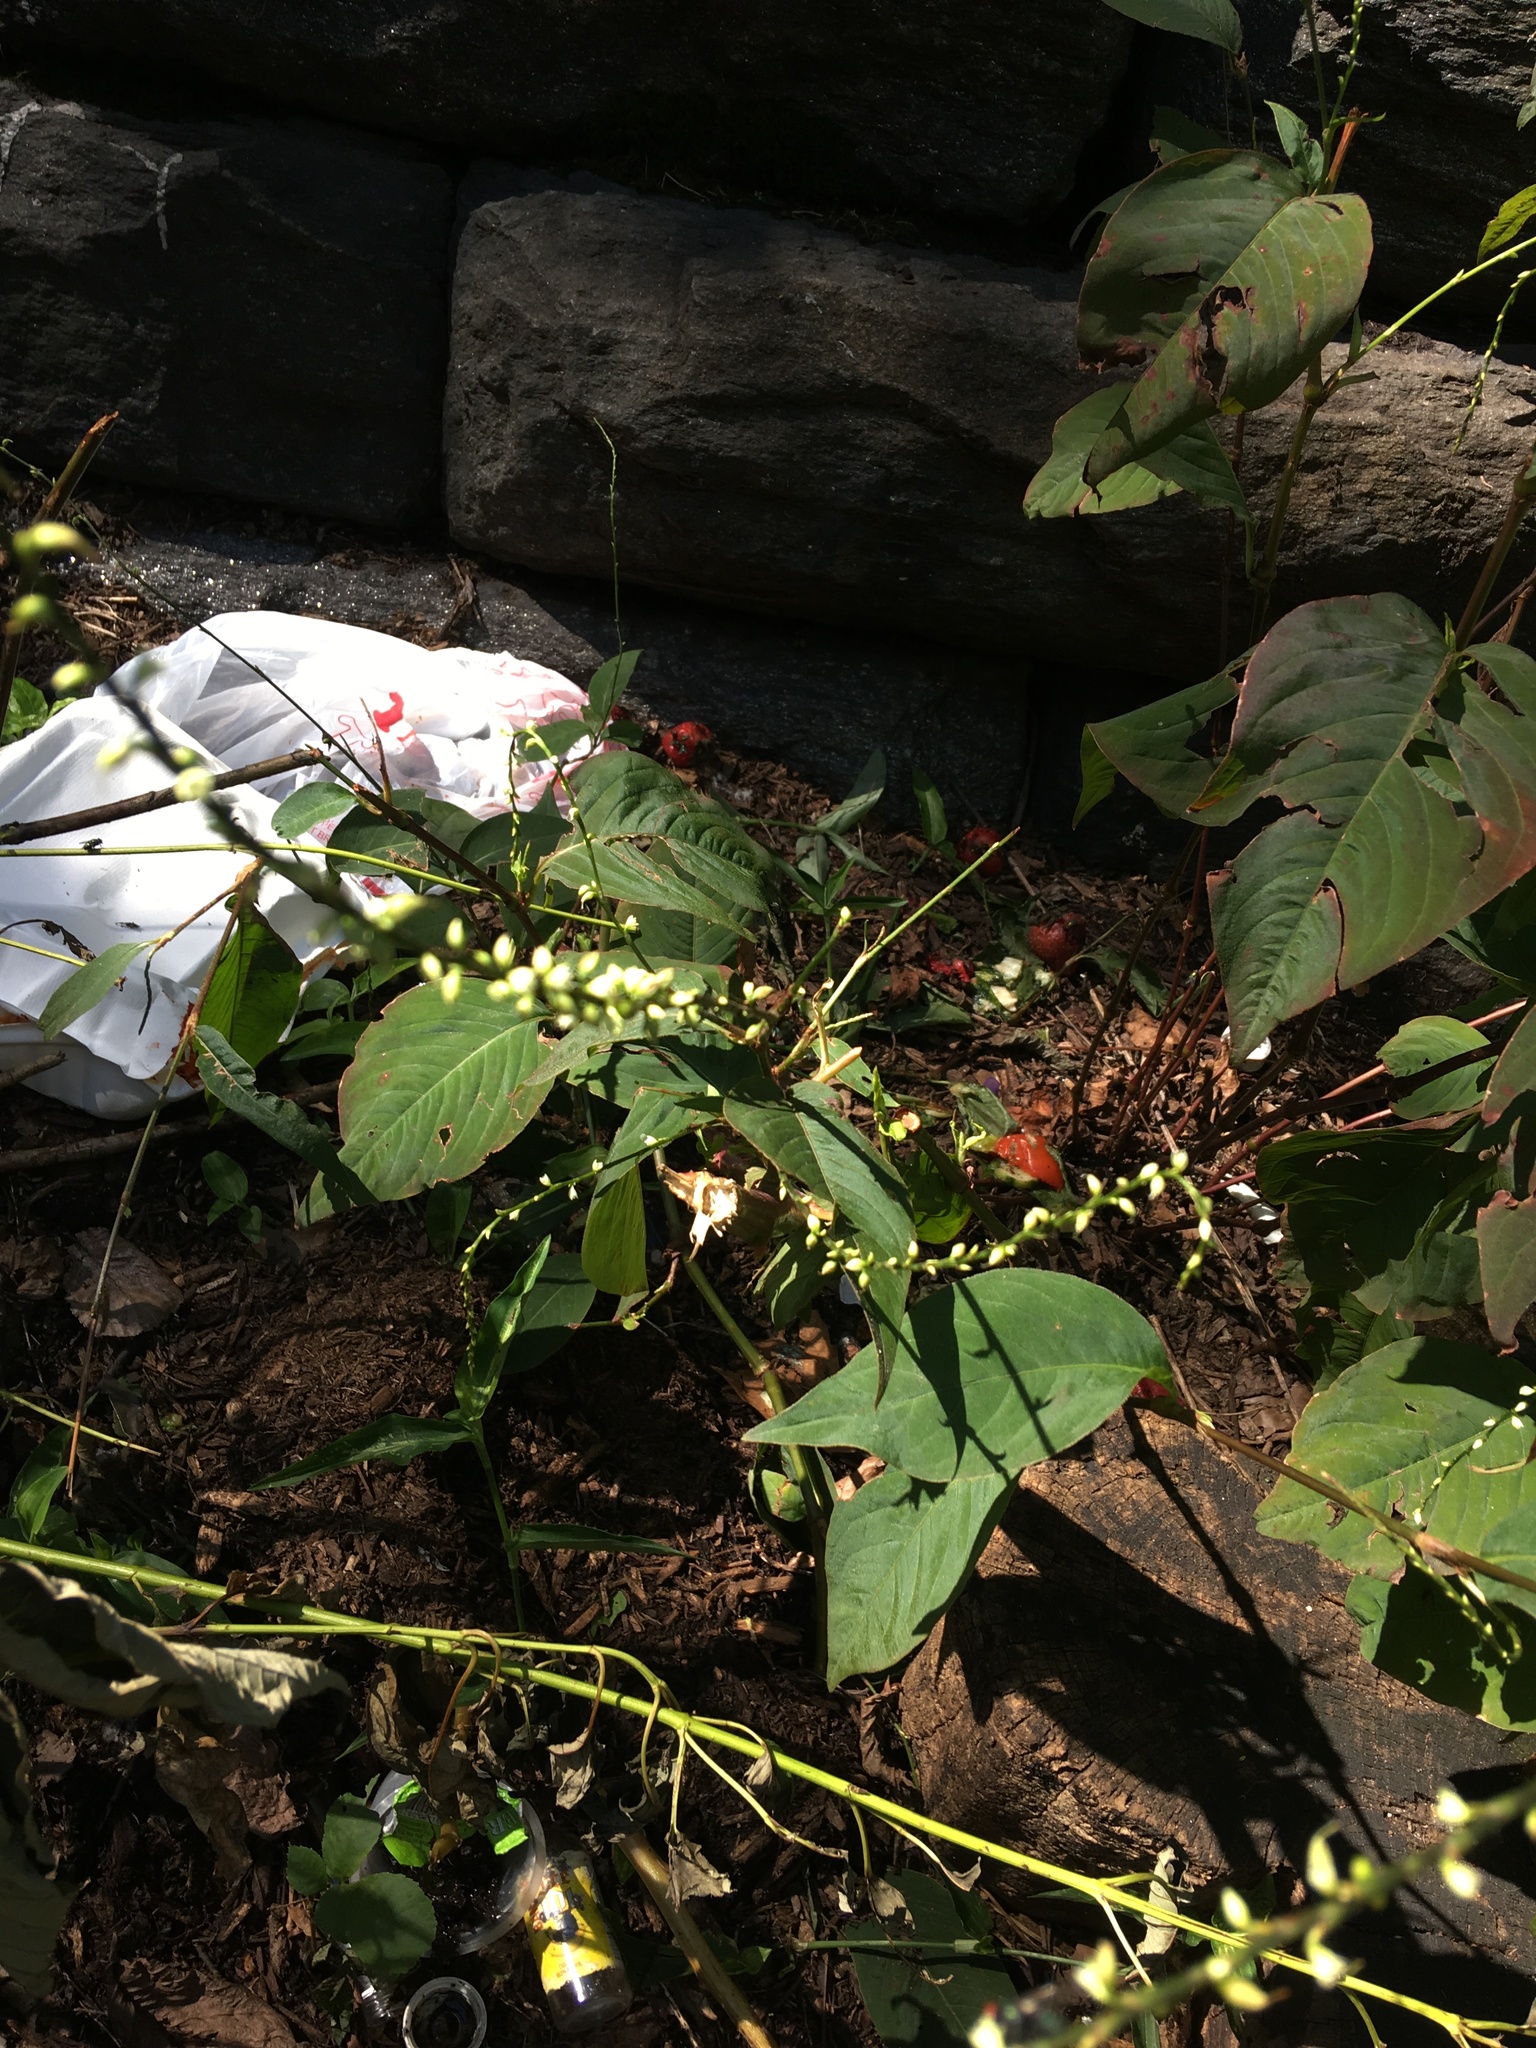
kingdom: Plantae
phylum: Tracheophyta
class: Magnoliopsida
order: Caryophyllales
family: Polygonaceae
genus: Persicaria
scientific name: Persicaria virginiana
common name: Jumpseed
